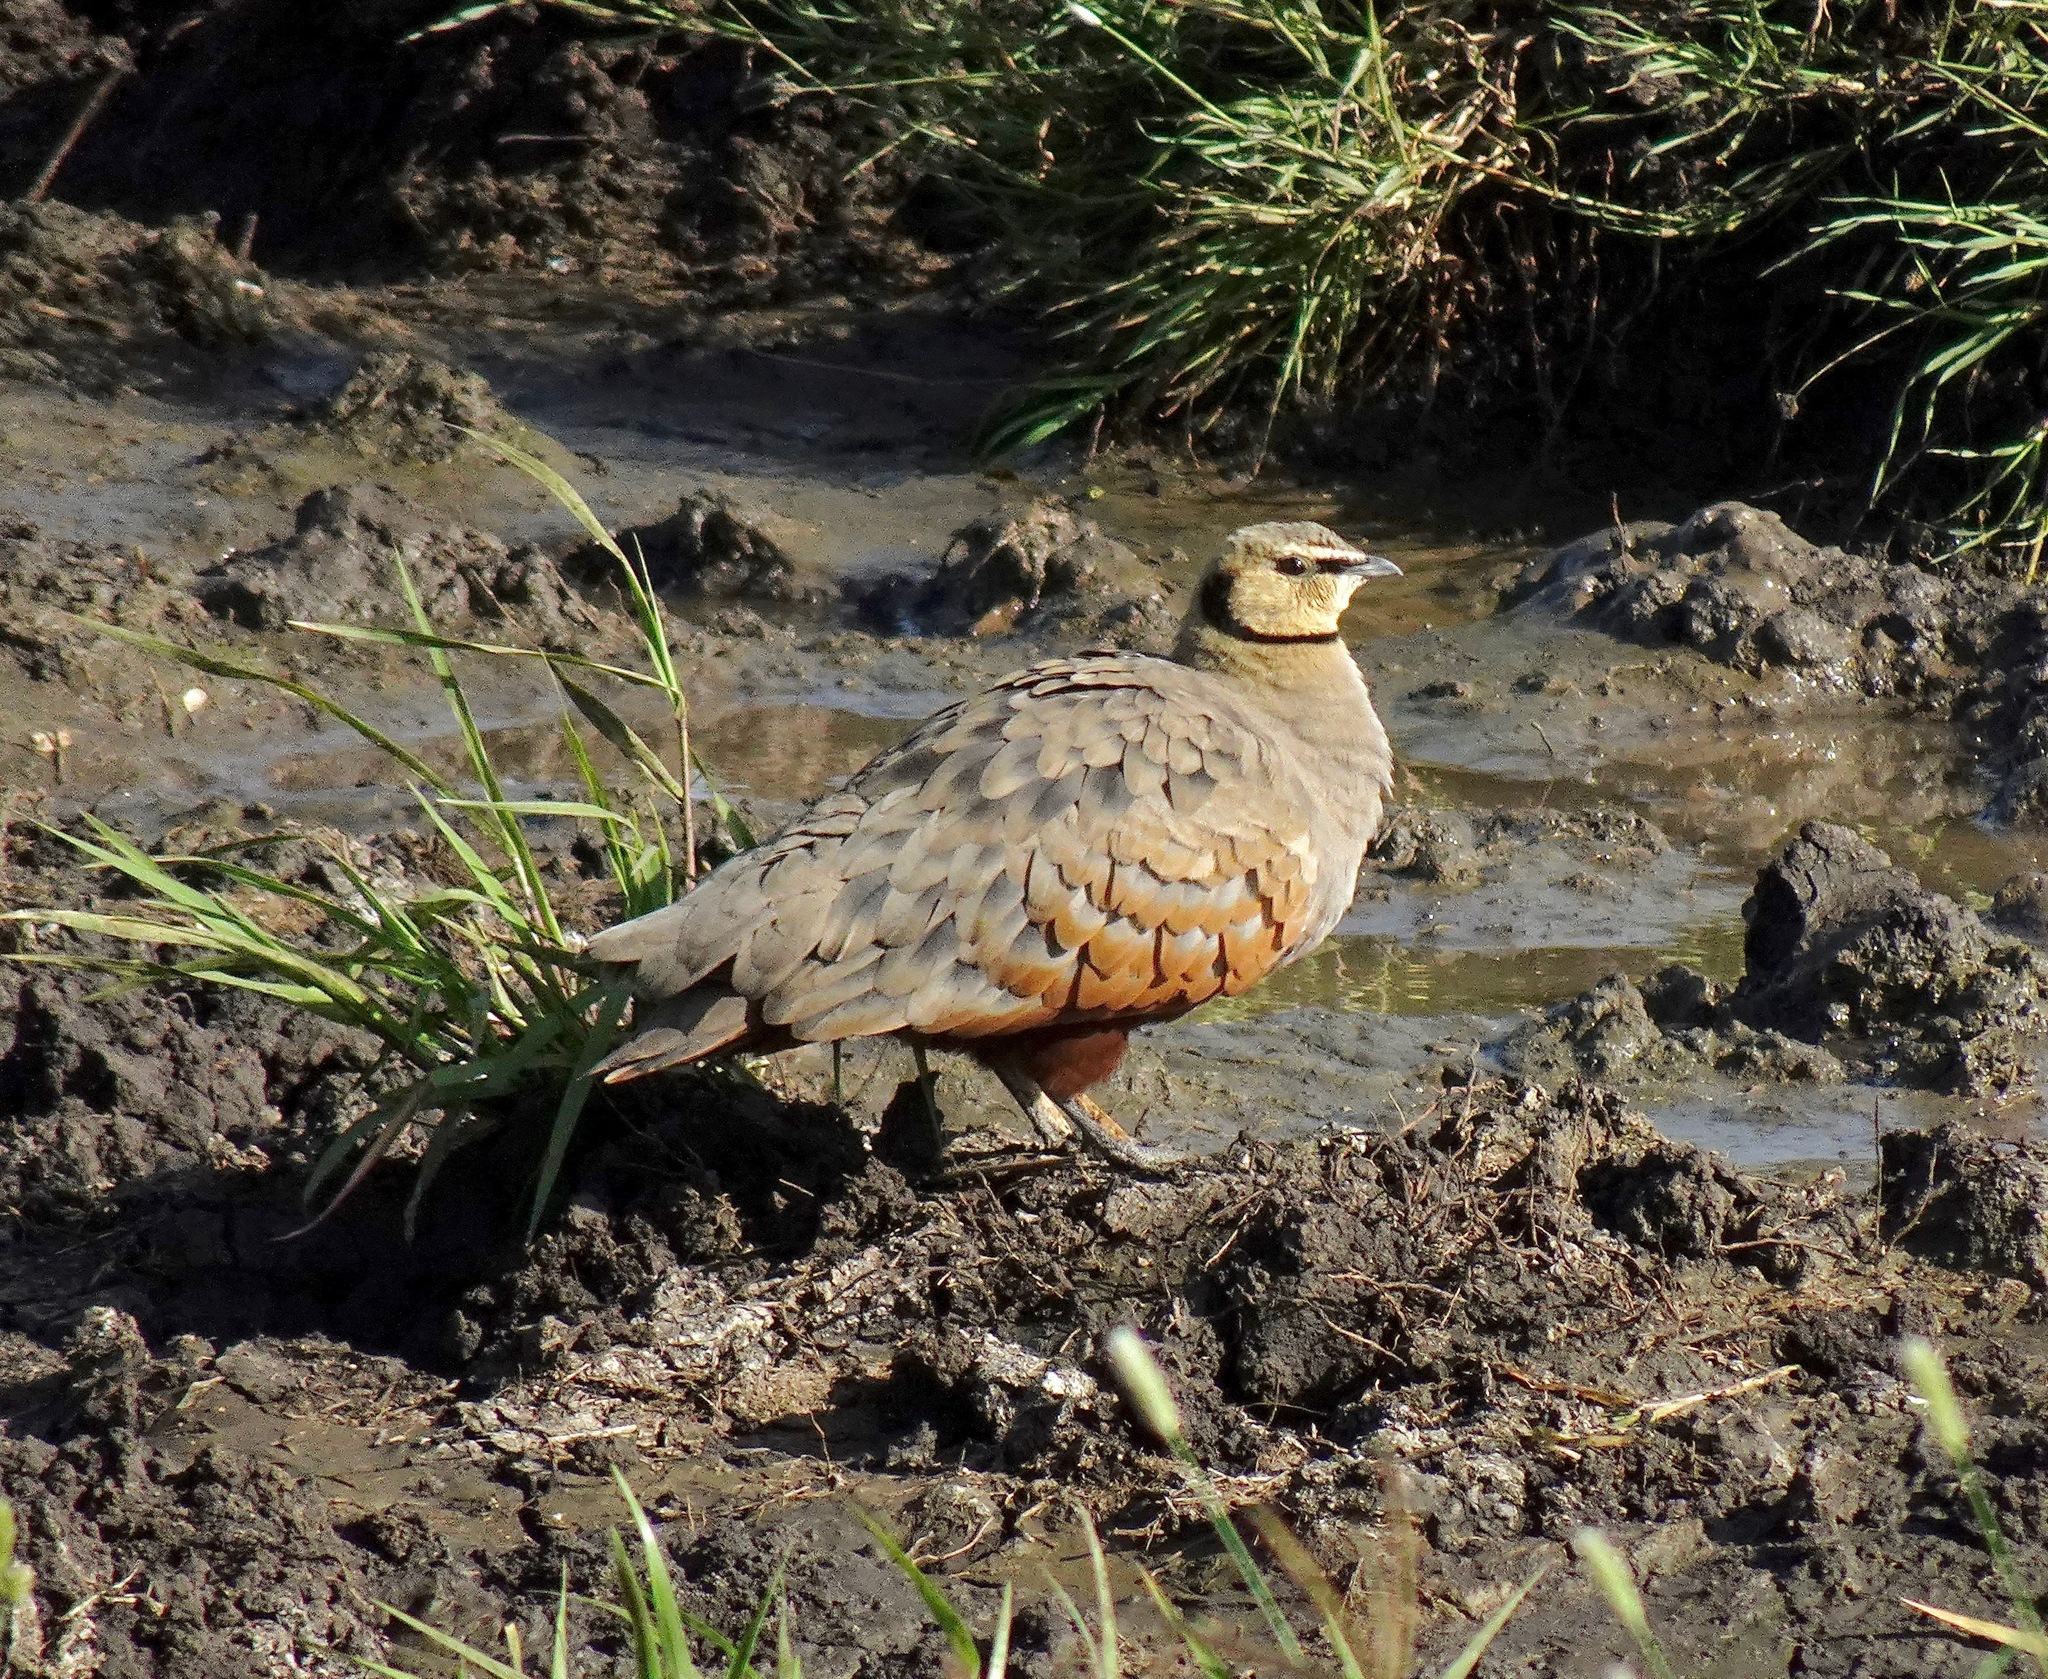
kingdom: Animalia
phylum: Chordata
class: Aves
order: Pteroclidiformes
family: Pteroclididae
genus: Pterocles
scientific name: Pterocles gutturalis
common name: Yellow-throated sandgrouse
